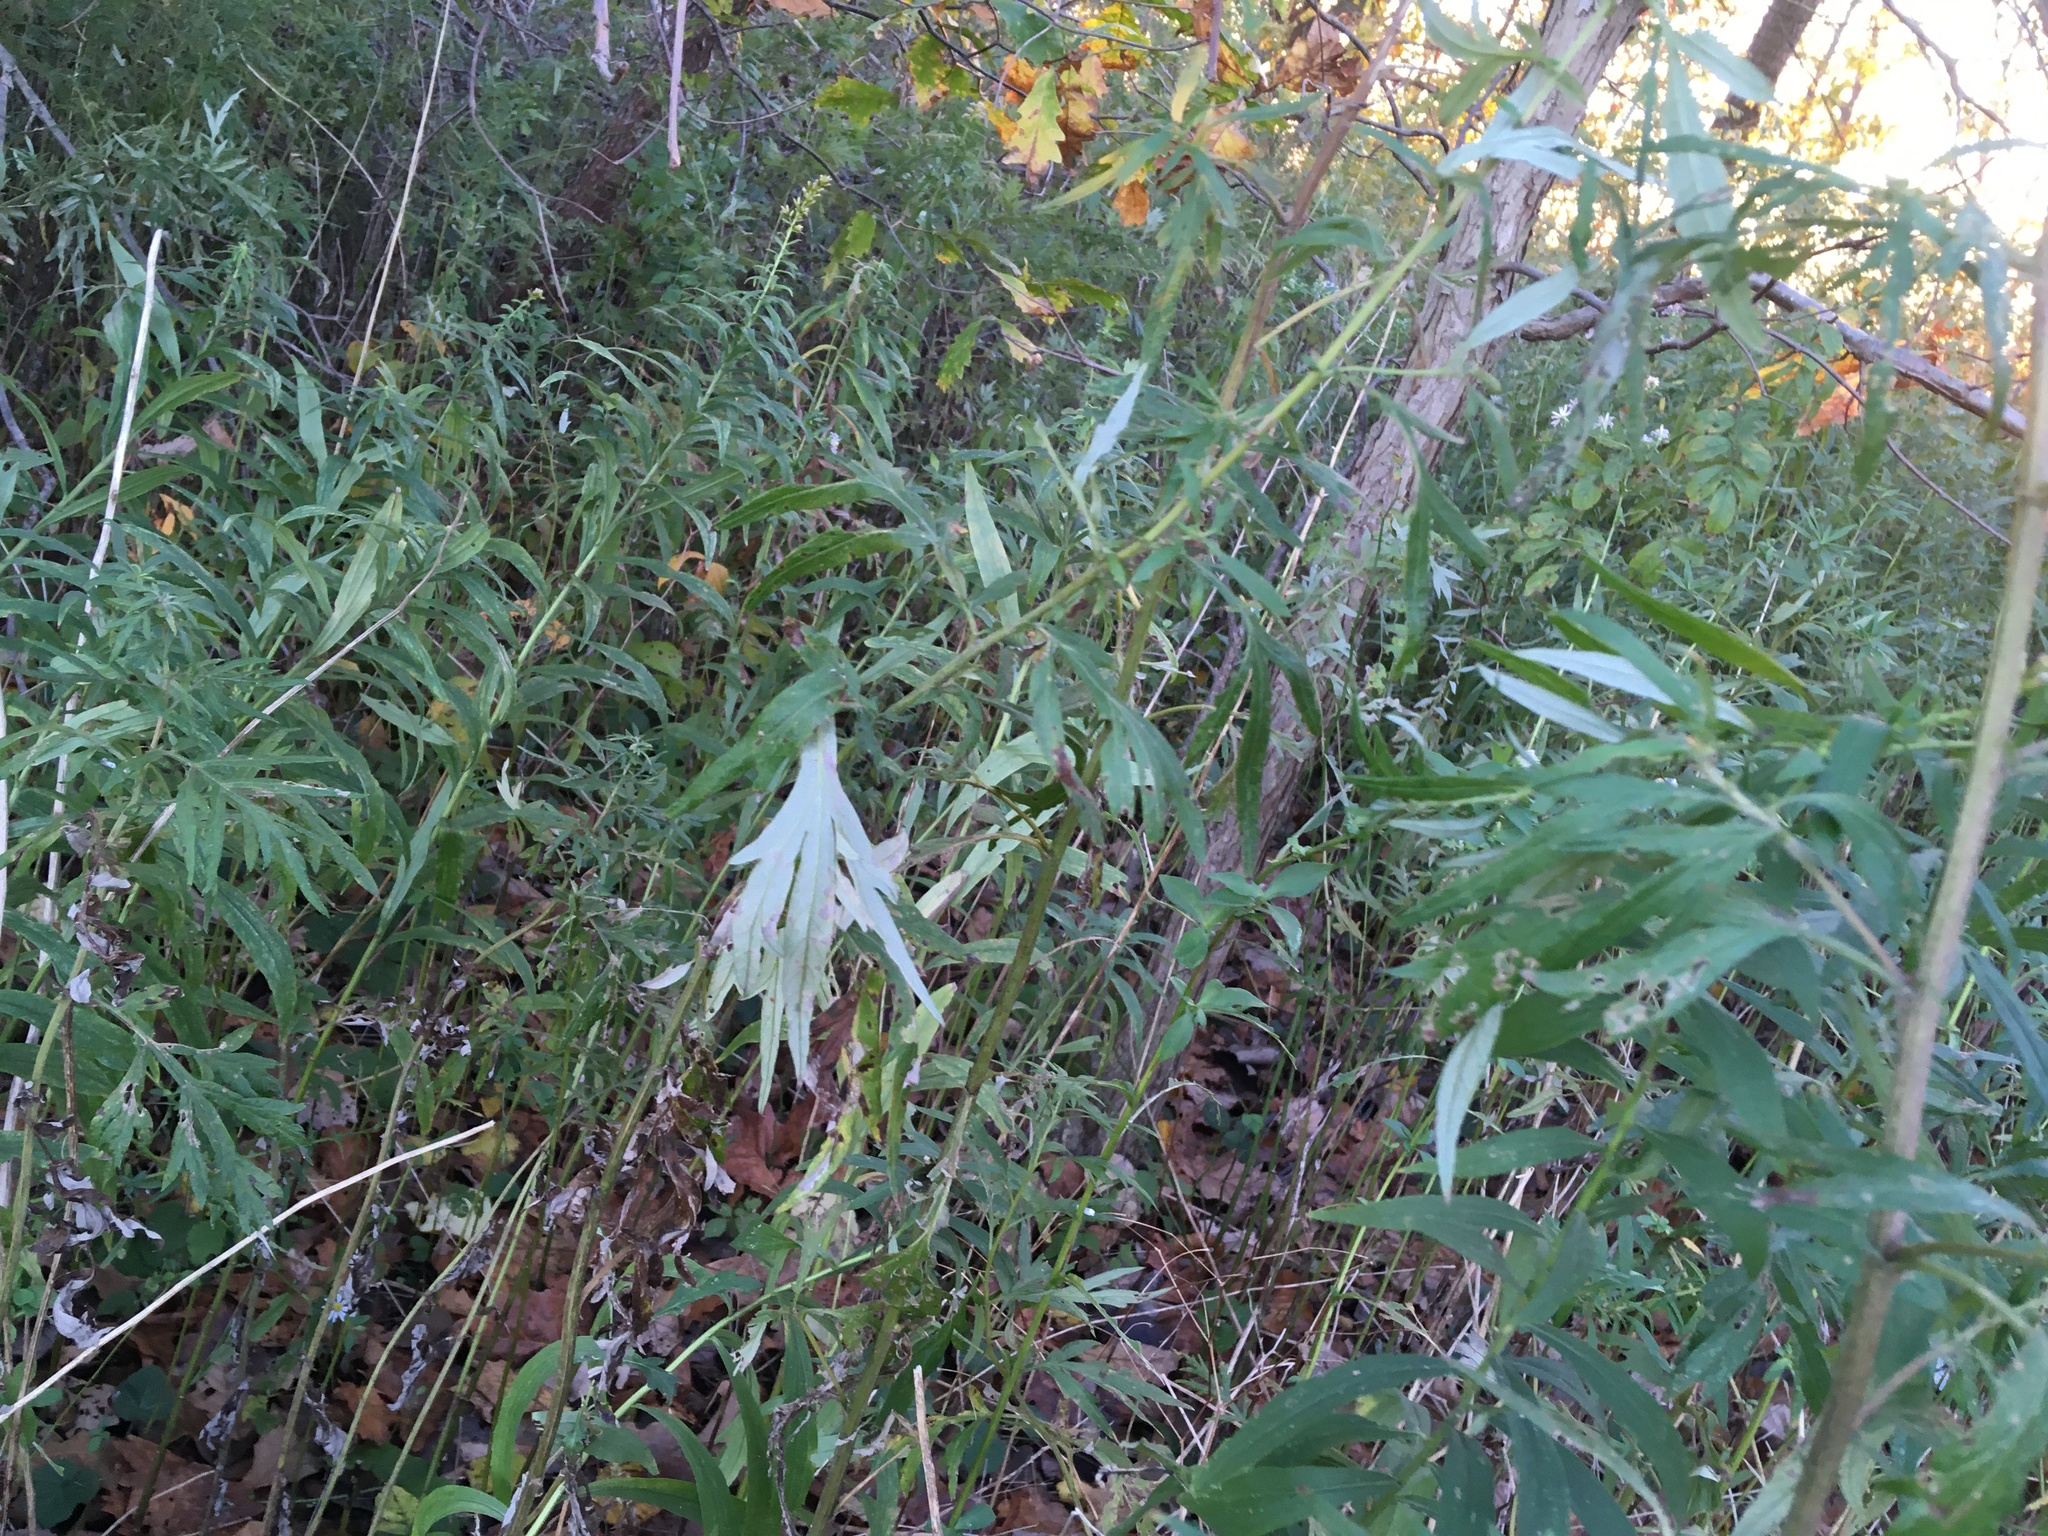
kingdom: Plantae
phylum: Tracheophyta
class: Magnoliopsida
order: Asterales
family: Asteraceae
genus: Artemisia
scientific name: Artemisia vulgaris
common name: Mugwort
